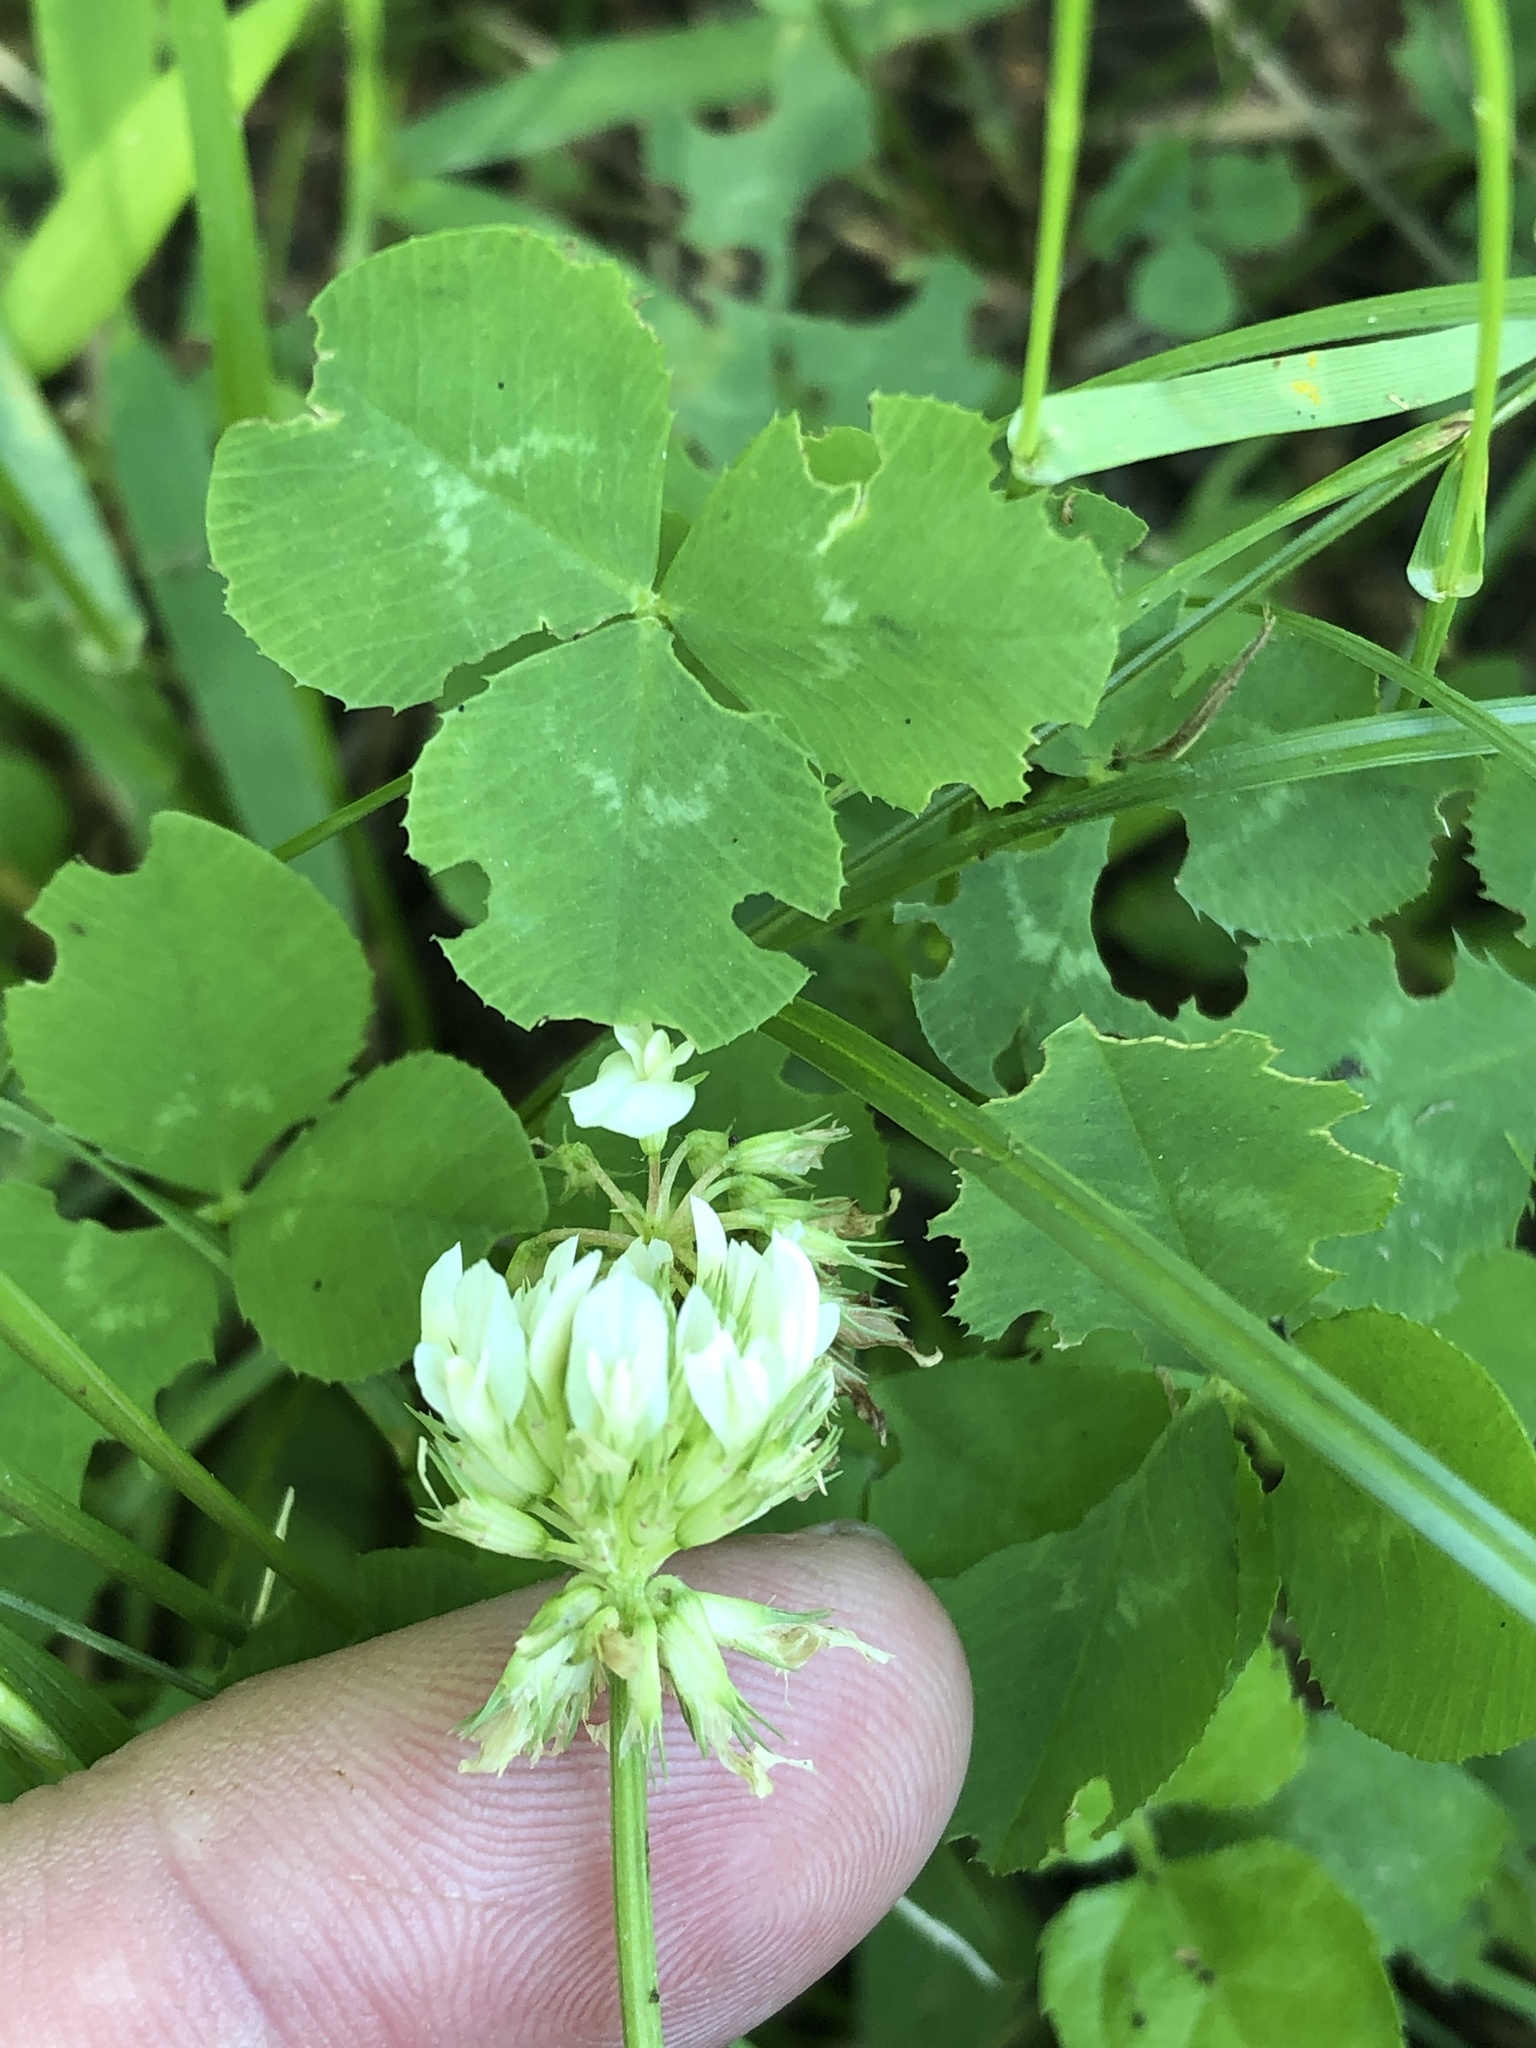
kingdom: Plantae
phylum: Tracheophyta
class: Magnoliopsida
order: Fabales
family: Fabaceae
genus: Trifolium
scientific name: Trifolium repens
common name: White clover
